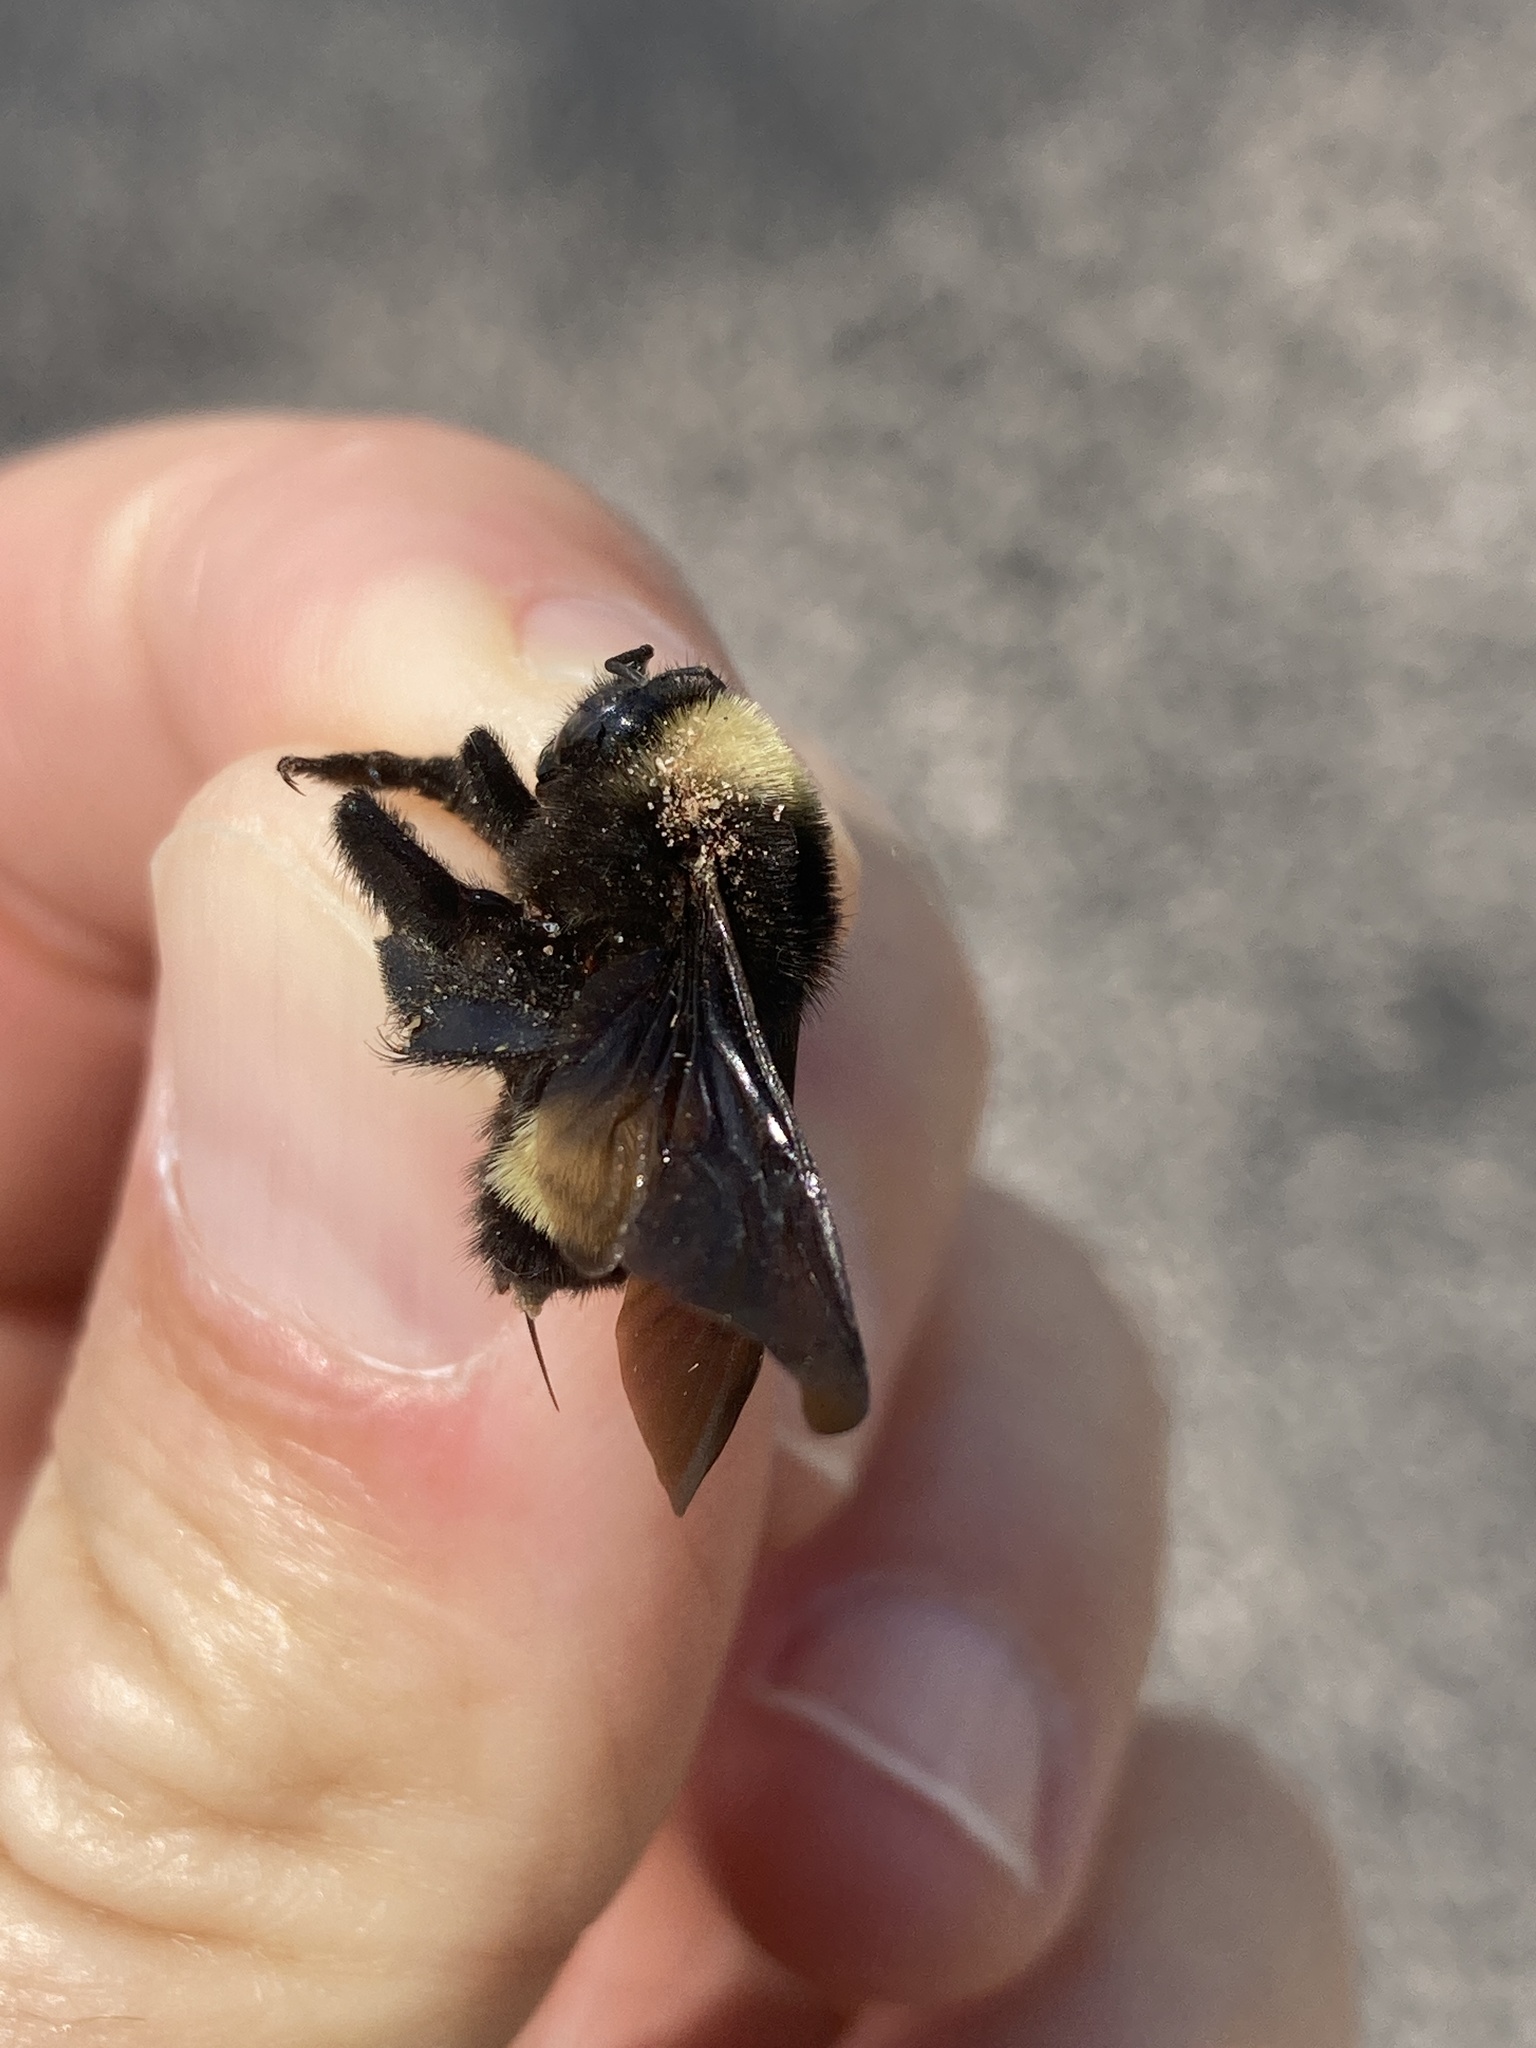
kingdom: Animalia
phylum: Arthropoda
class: Insecta
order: Hymenoptera
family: Apidae
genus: Bombus
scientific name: Bombus pensylvanicus
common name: Bumble bee
